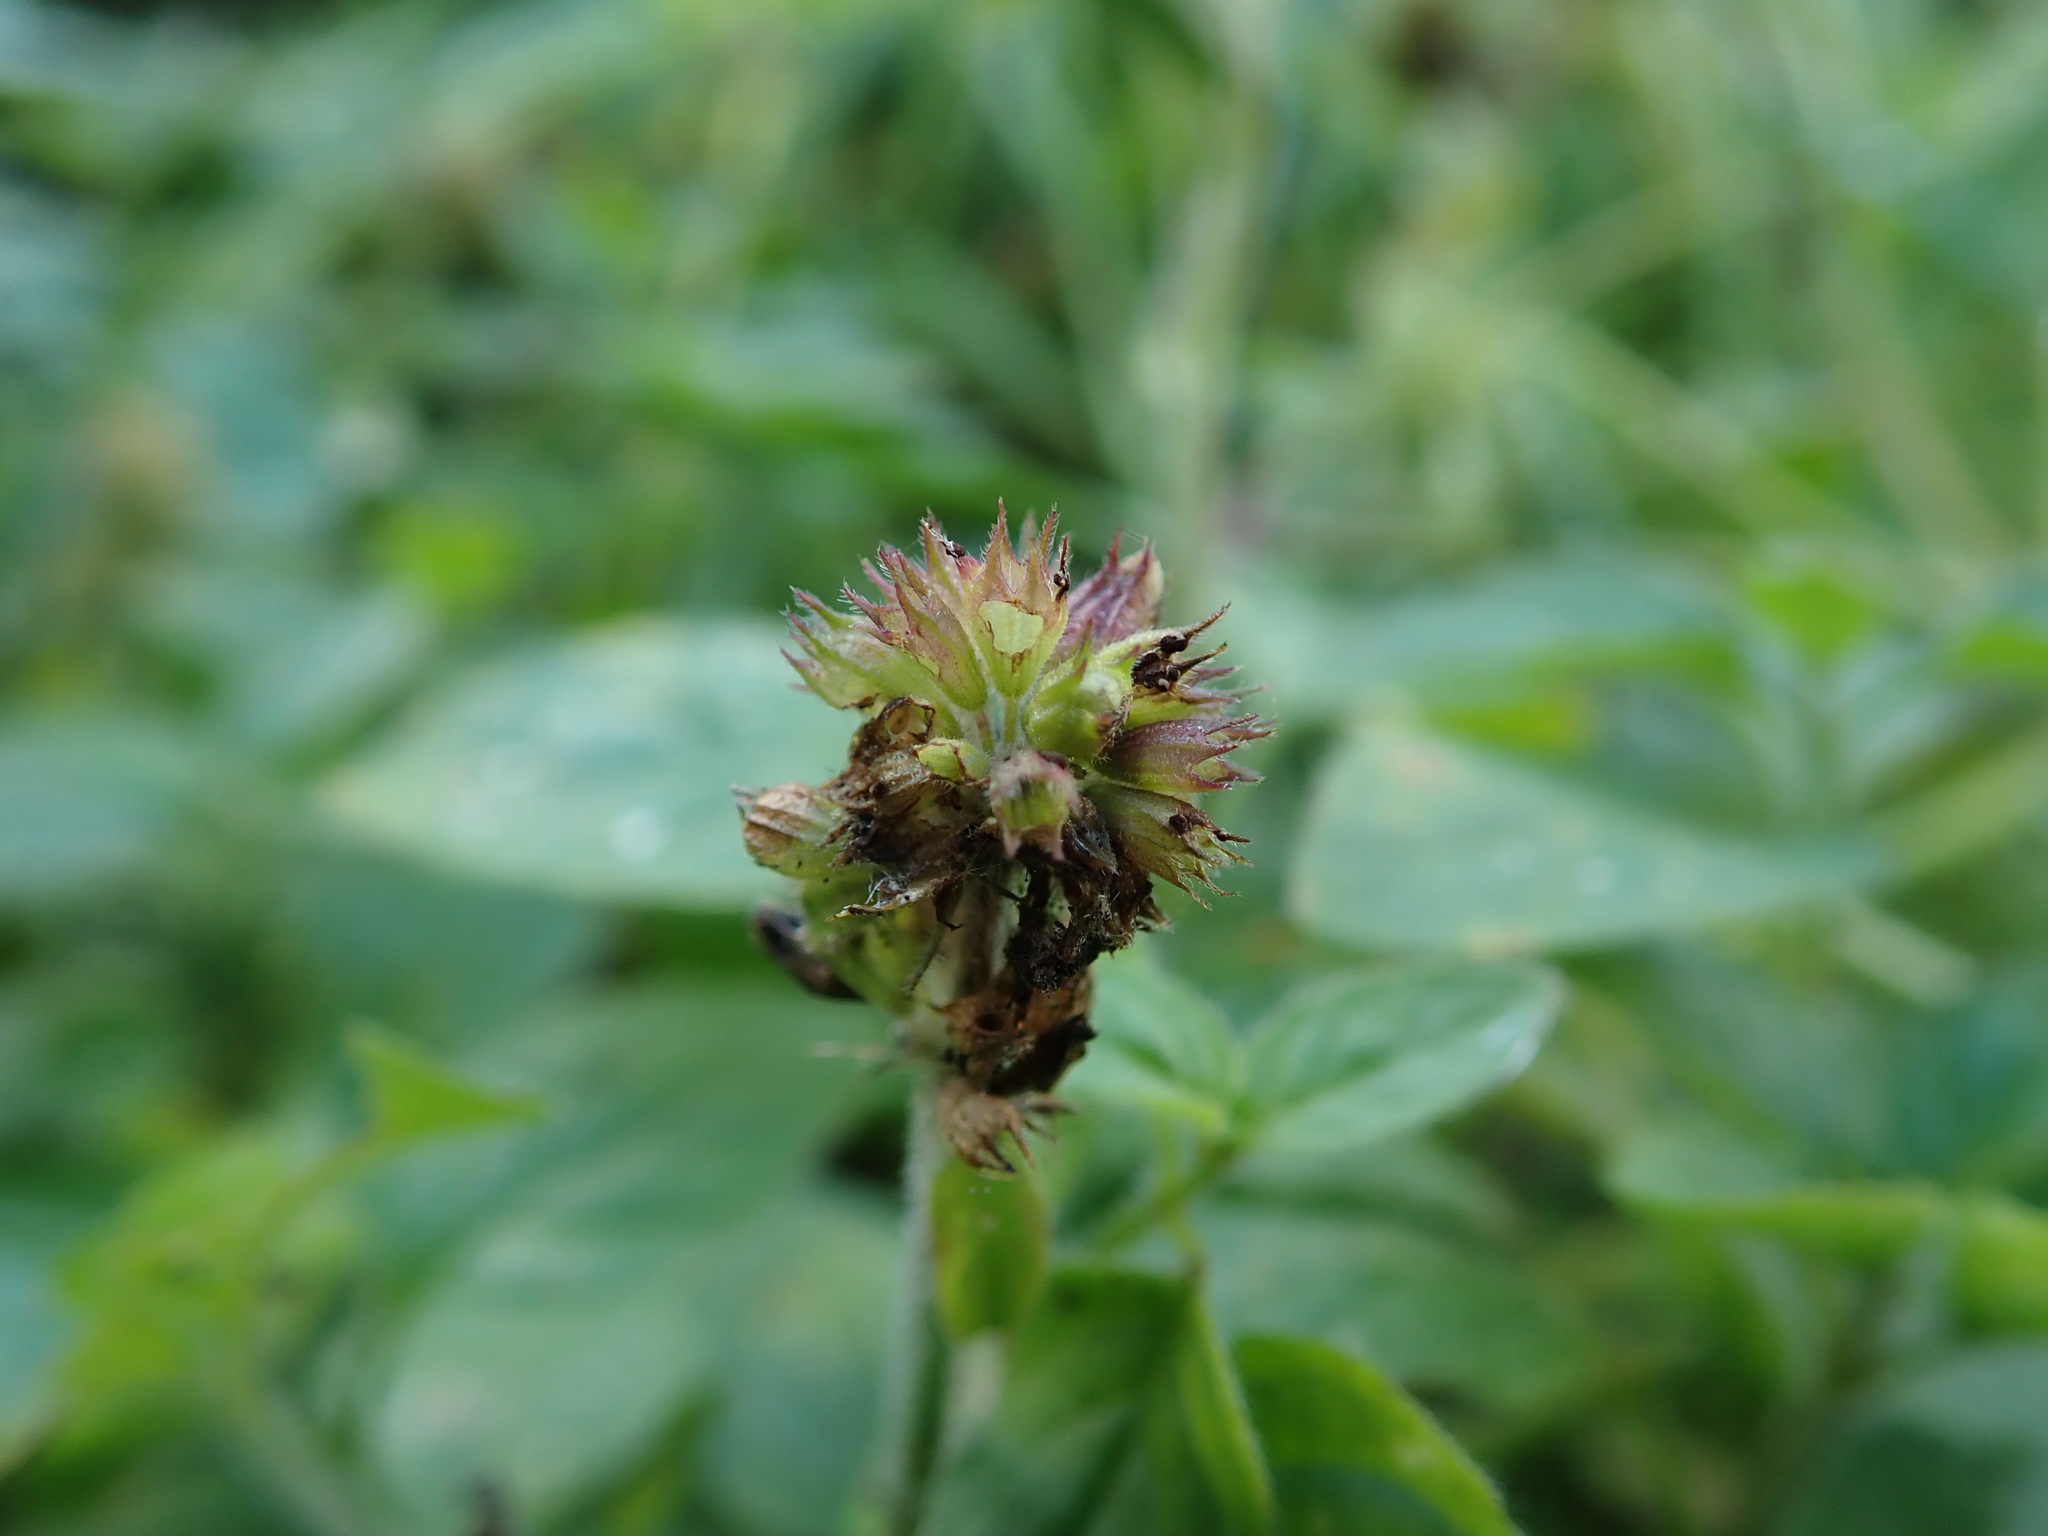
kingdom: Plantae
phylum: Tracheophyta
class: Magnoliopsida
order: Lamiales
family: Lamiaceae
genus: Mentha
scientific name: Mentha aquatica
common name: Water mint
